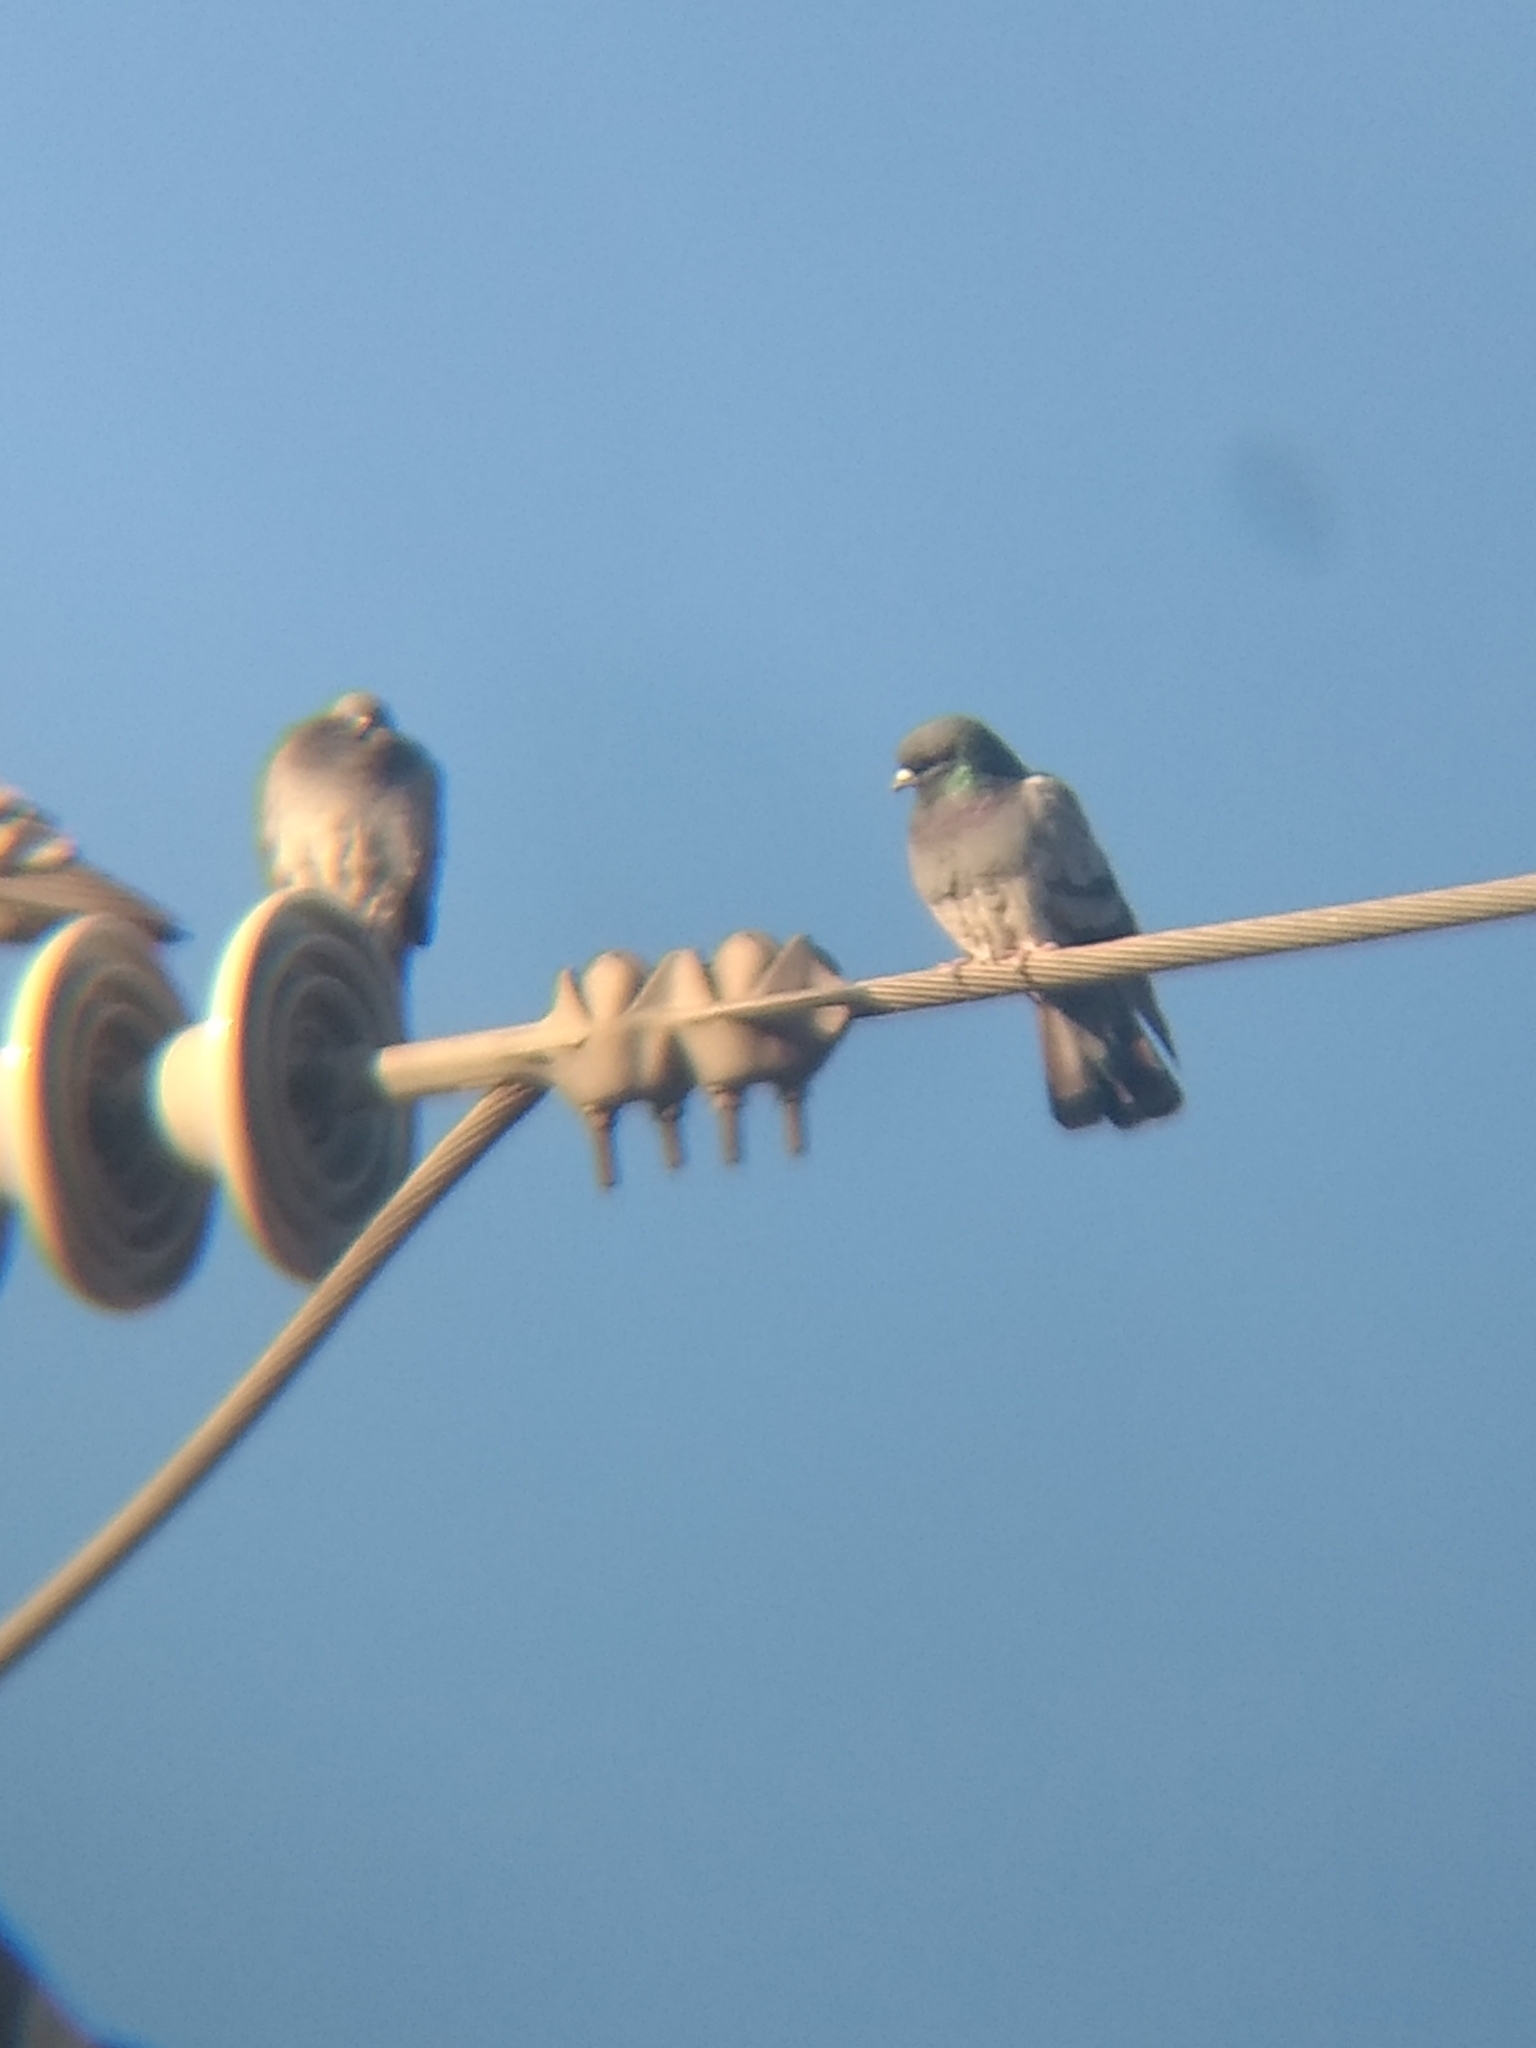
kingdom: Animalia
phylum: Chordata
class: Aves
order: Columbiformes
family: Columbidae
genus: Columba
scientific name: Columba livia
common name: Rock pigeon
